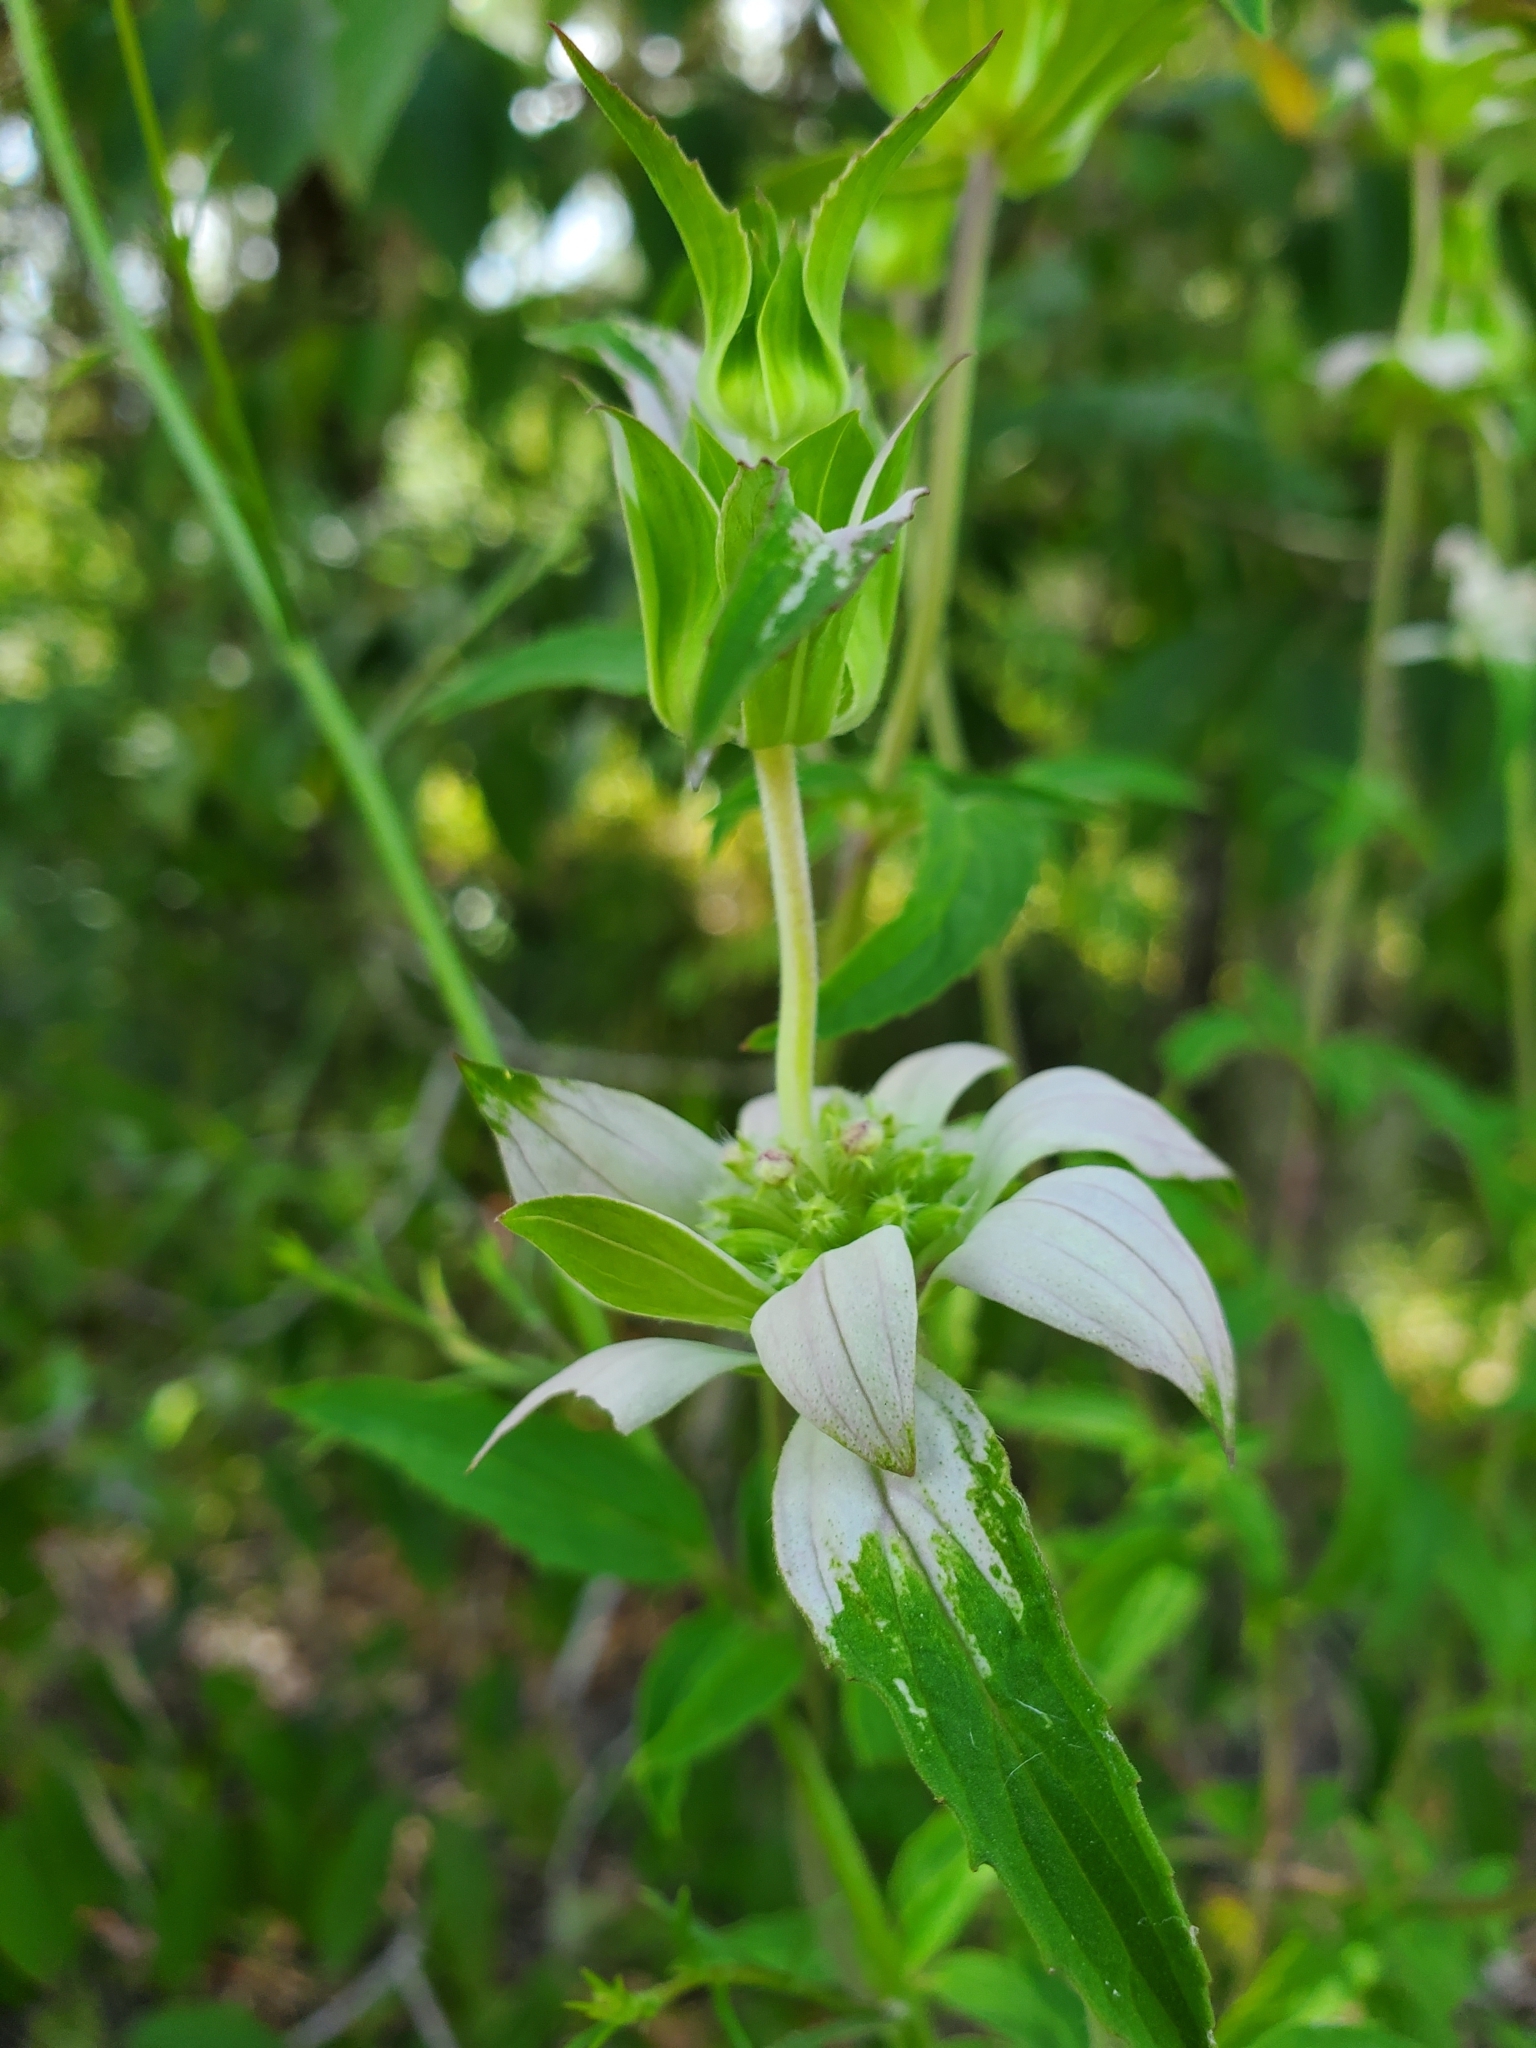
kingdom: Plantae
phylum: Tracheophyta
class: Magnoliopsida
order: Lamiales
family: Lamiaceae
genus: Monarda
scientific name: Monarda punctata
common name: Dotted monarda
